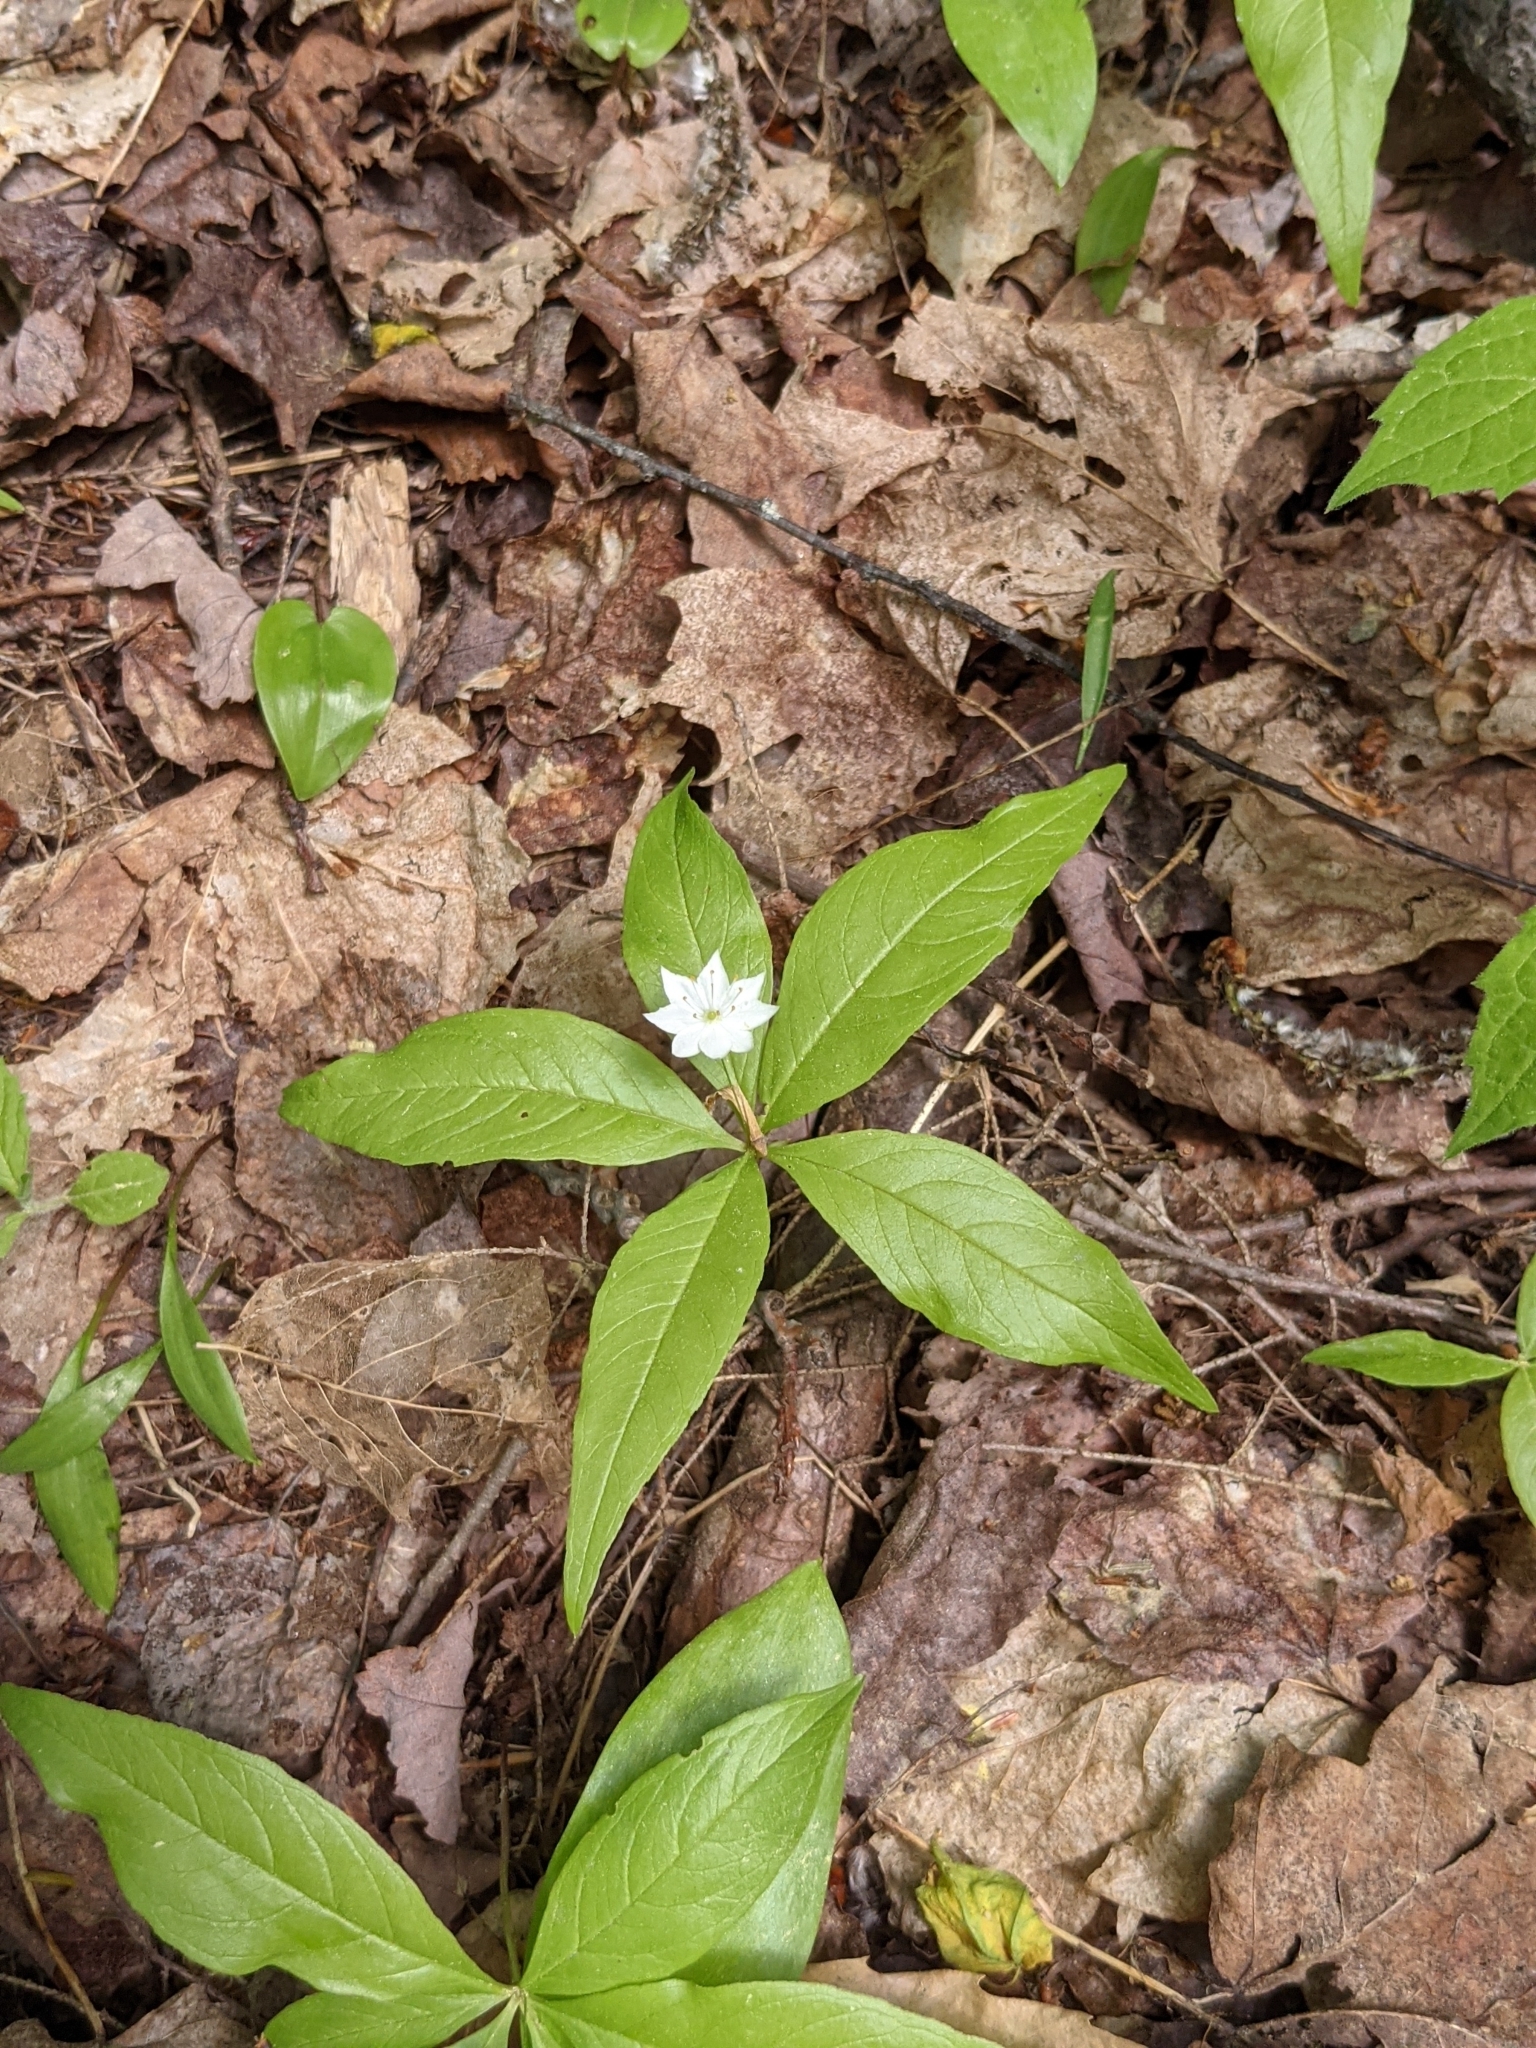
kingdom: Plantae
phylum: Tracheophyta
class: Magnoliopsida
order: Ericales
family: Primulaceae
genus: Lysimachia
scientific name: Lysimachia borealis
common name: American starflower
